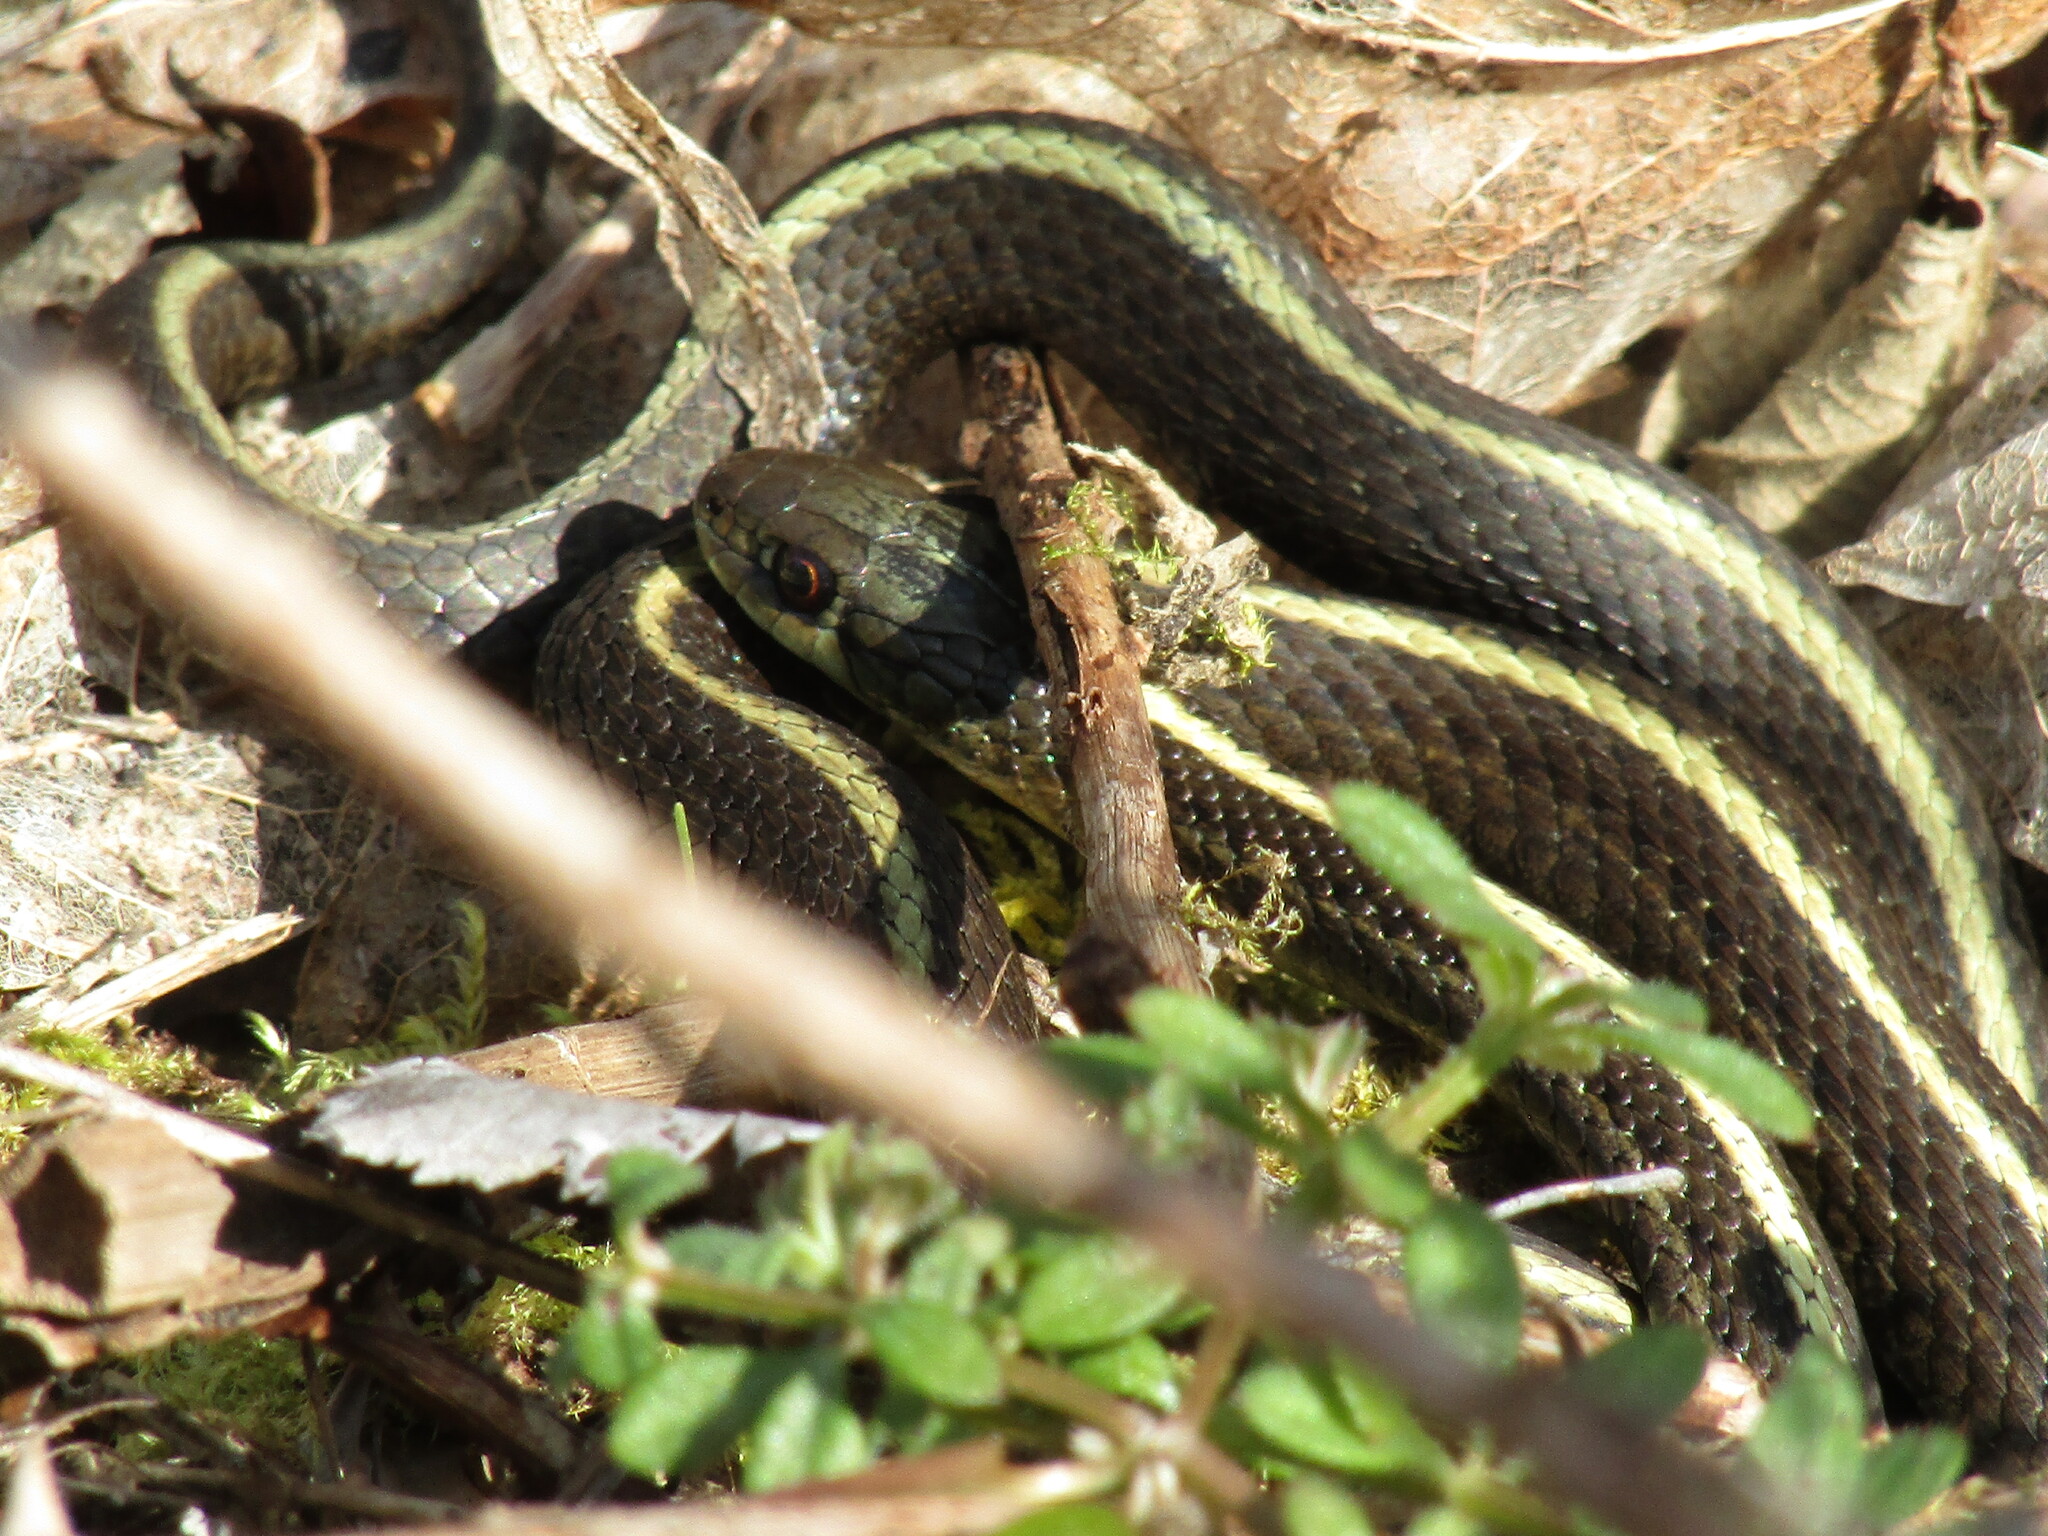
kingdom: Animalia
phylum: Chordata
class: Squamata
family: Colubridae
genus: Thamnophis
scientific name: Thamnophis ordinoides
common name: Northwestern garter snake
